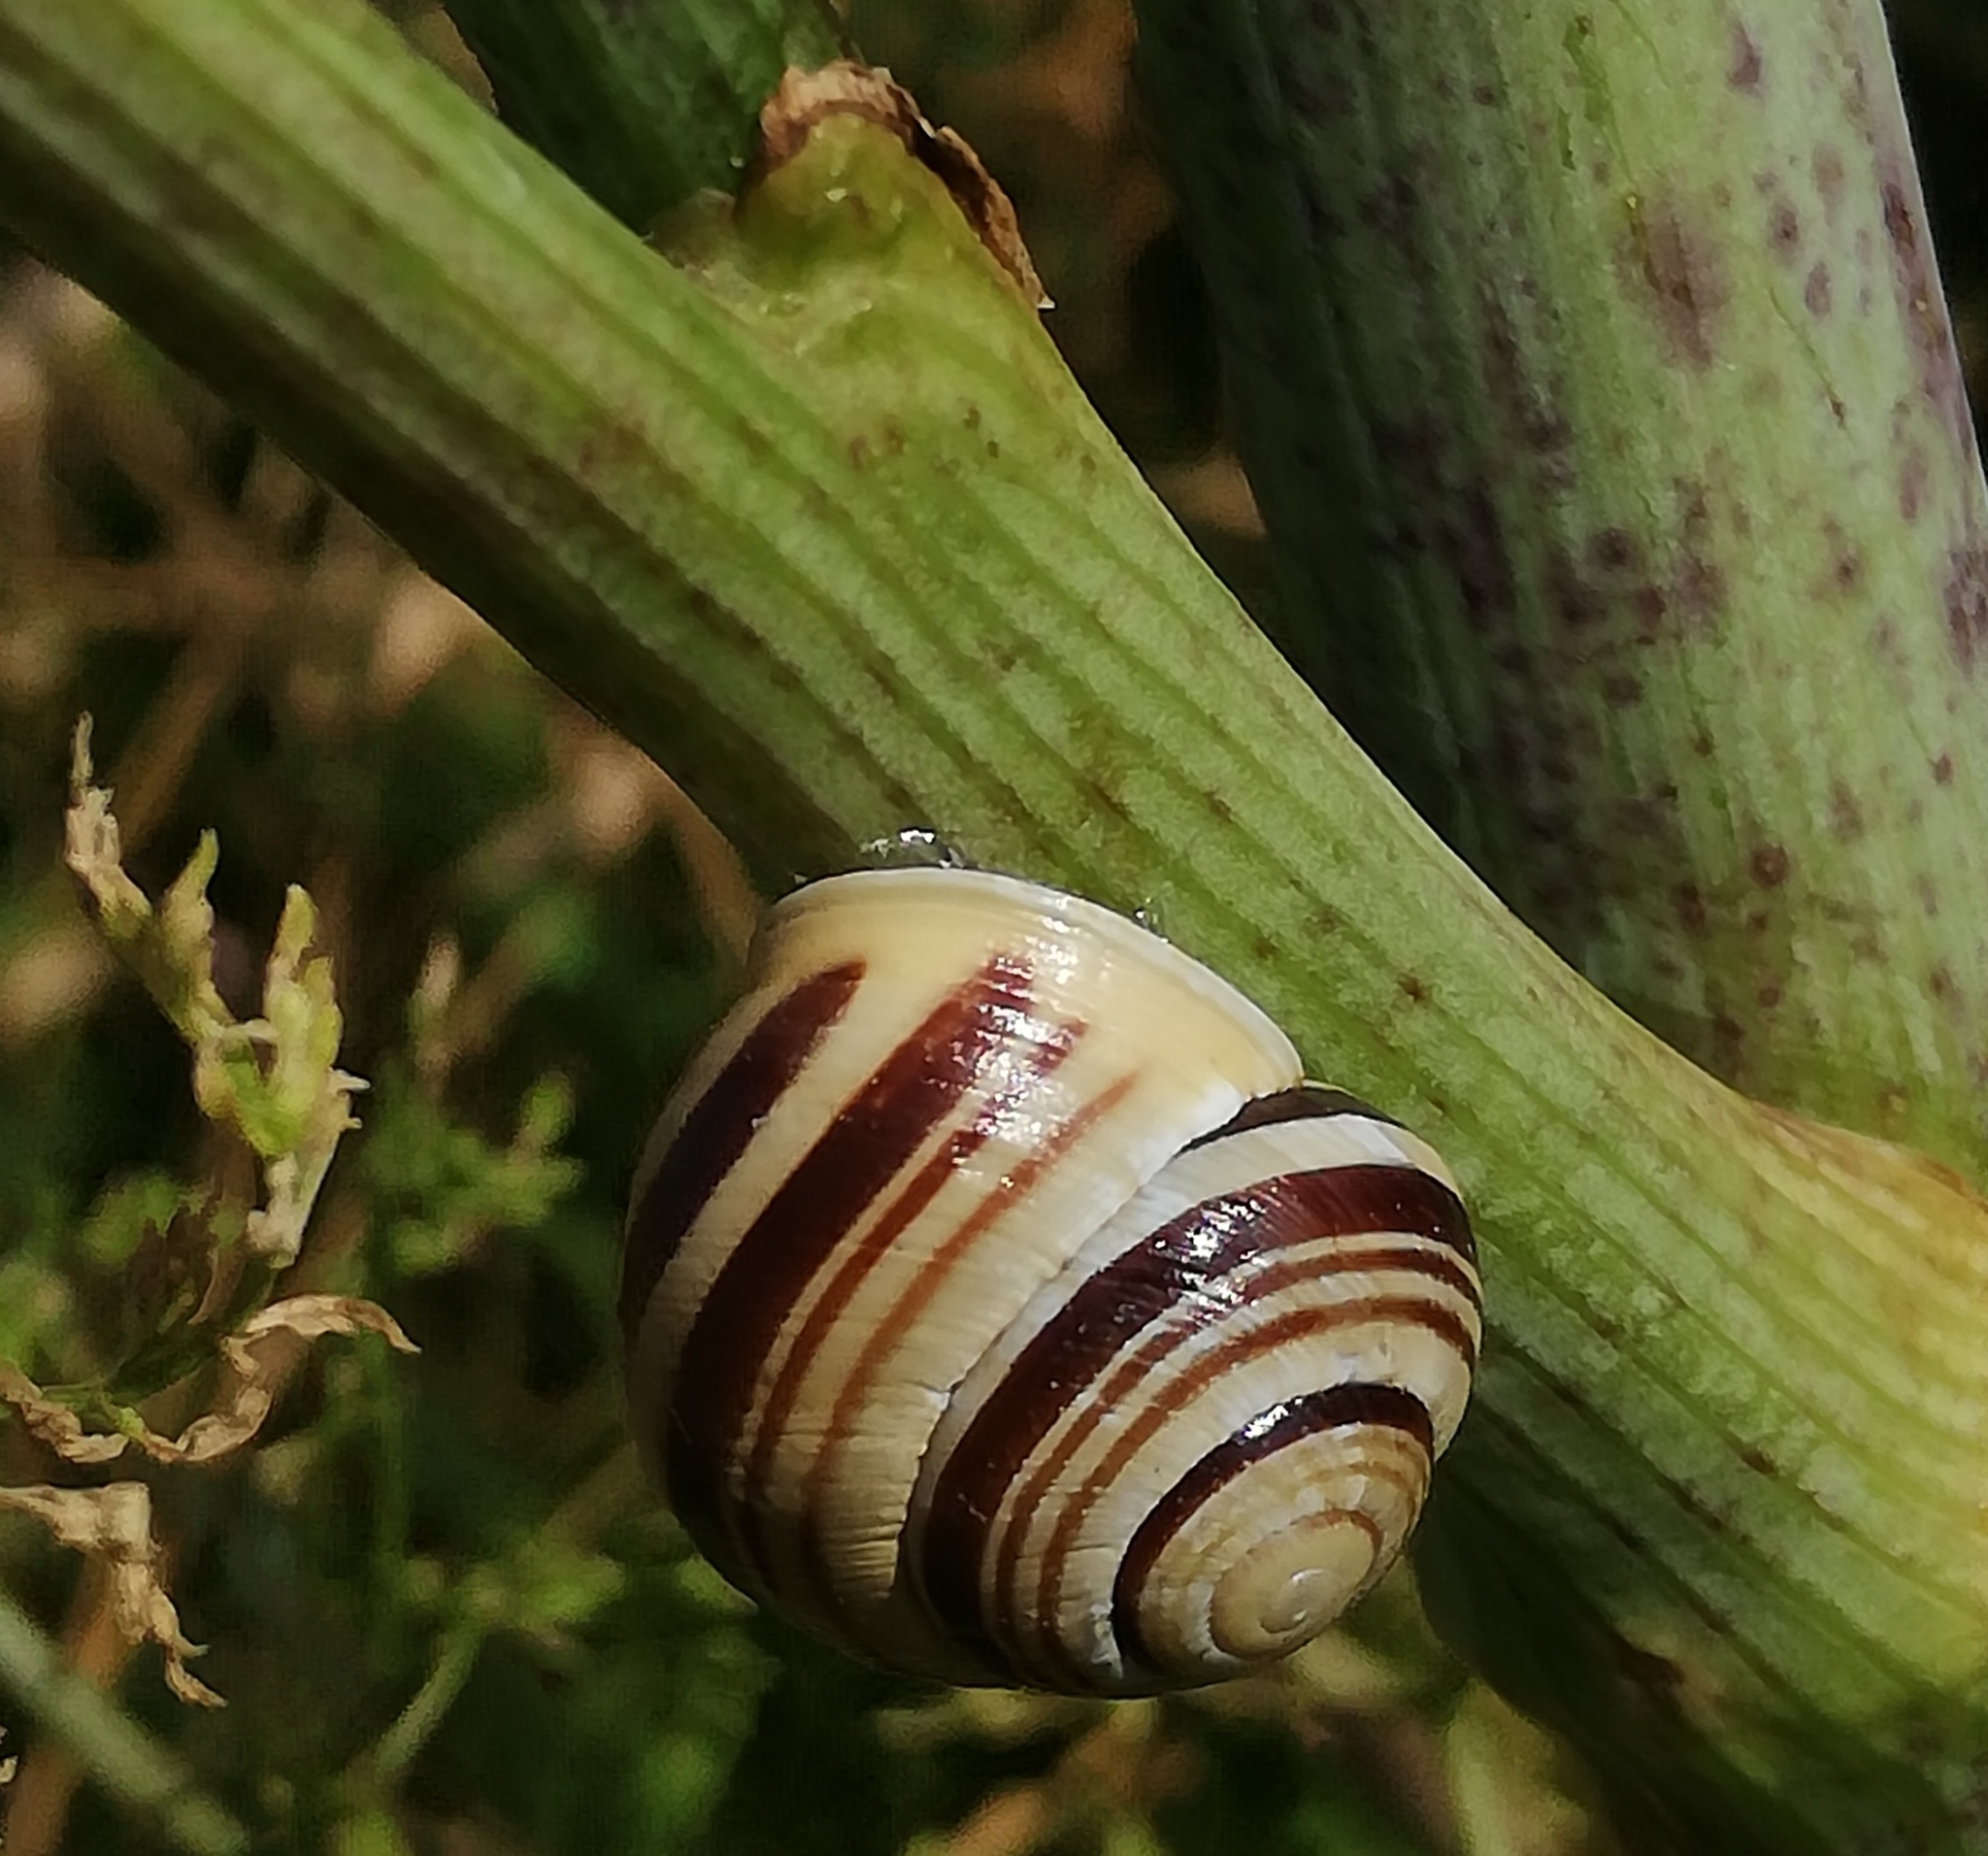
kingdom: Animalia
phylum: Mollusca
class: Gastropoda
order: Stylommatophora
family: Helicidae
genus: Cepaea
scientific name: Cepaea hortensis
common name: White-lip gardensnail
